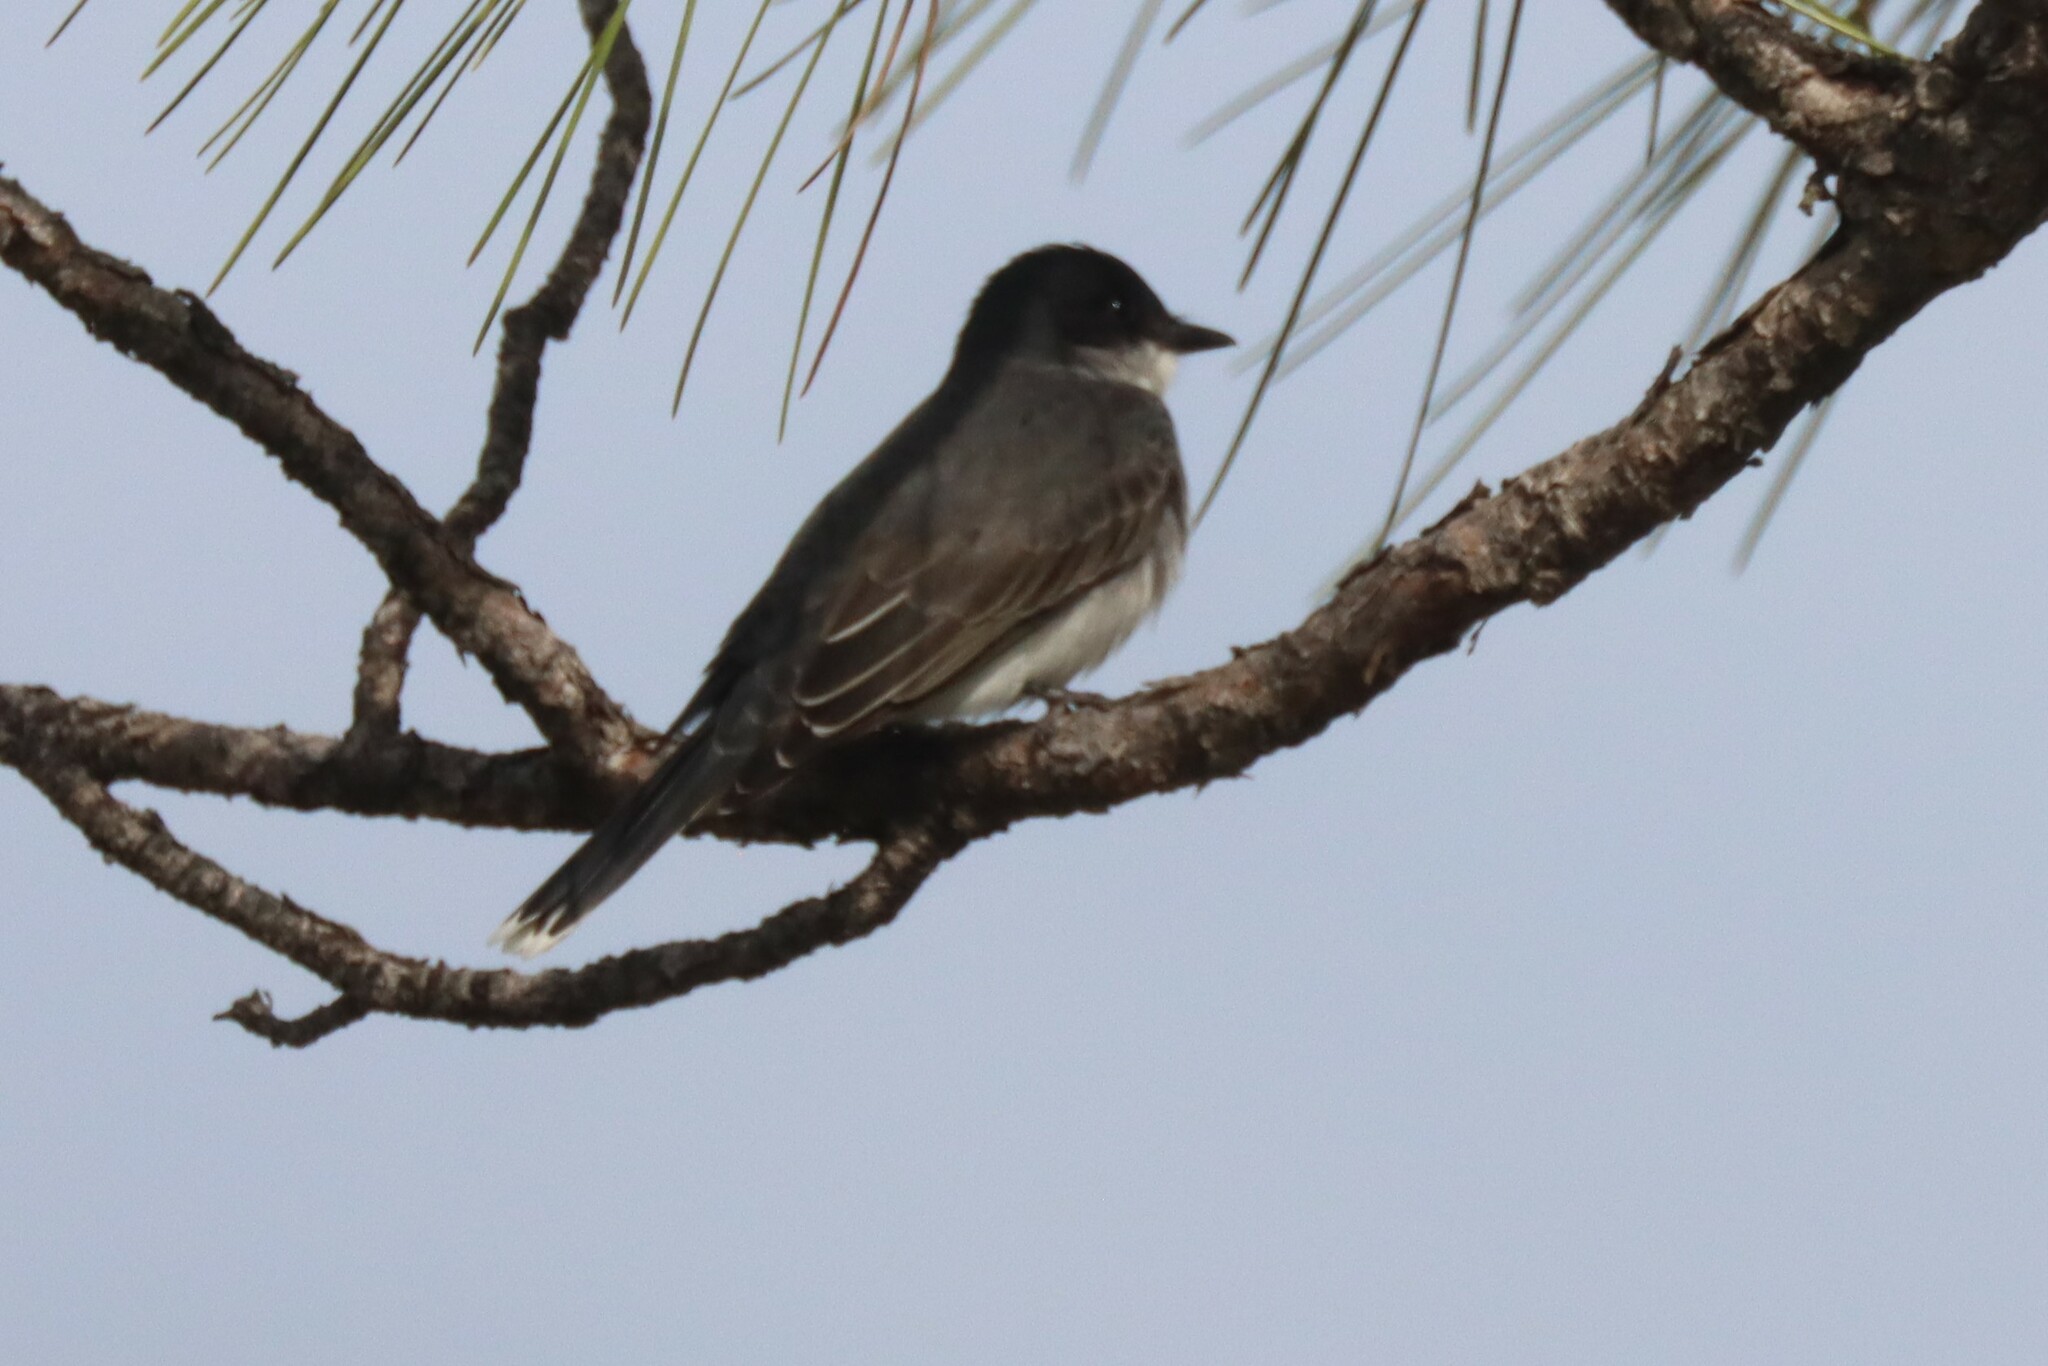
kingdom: Animalia
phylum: Chordata
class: Aves
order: Passeriformes
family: Tyrannidae
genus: Tyrannus
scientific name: Tyrannus tyrannus
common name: Eastern kingbird
